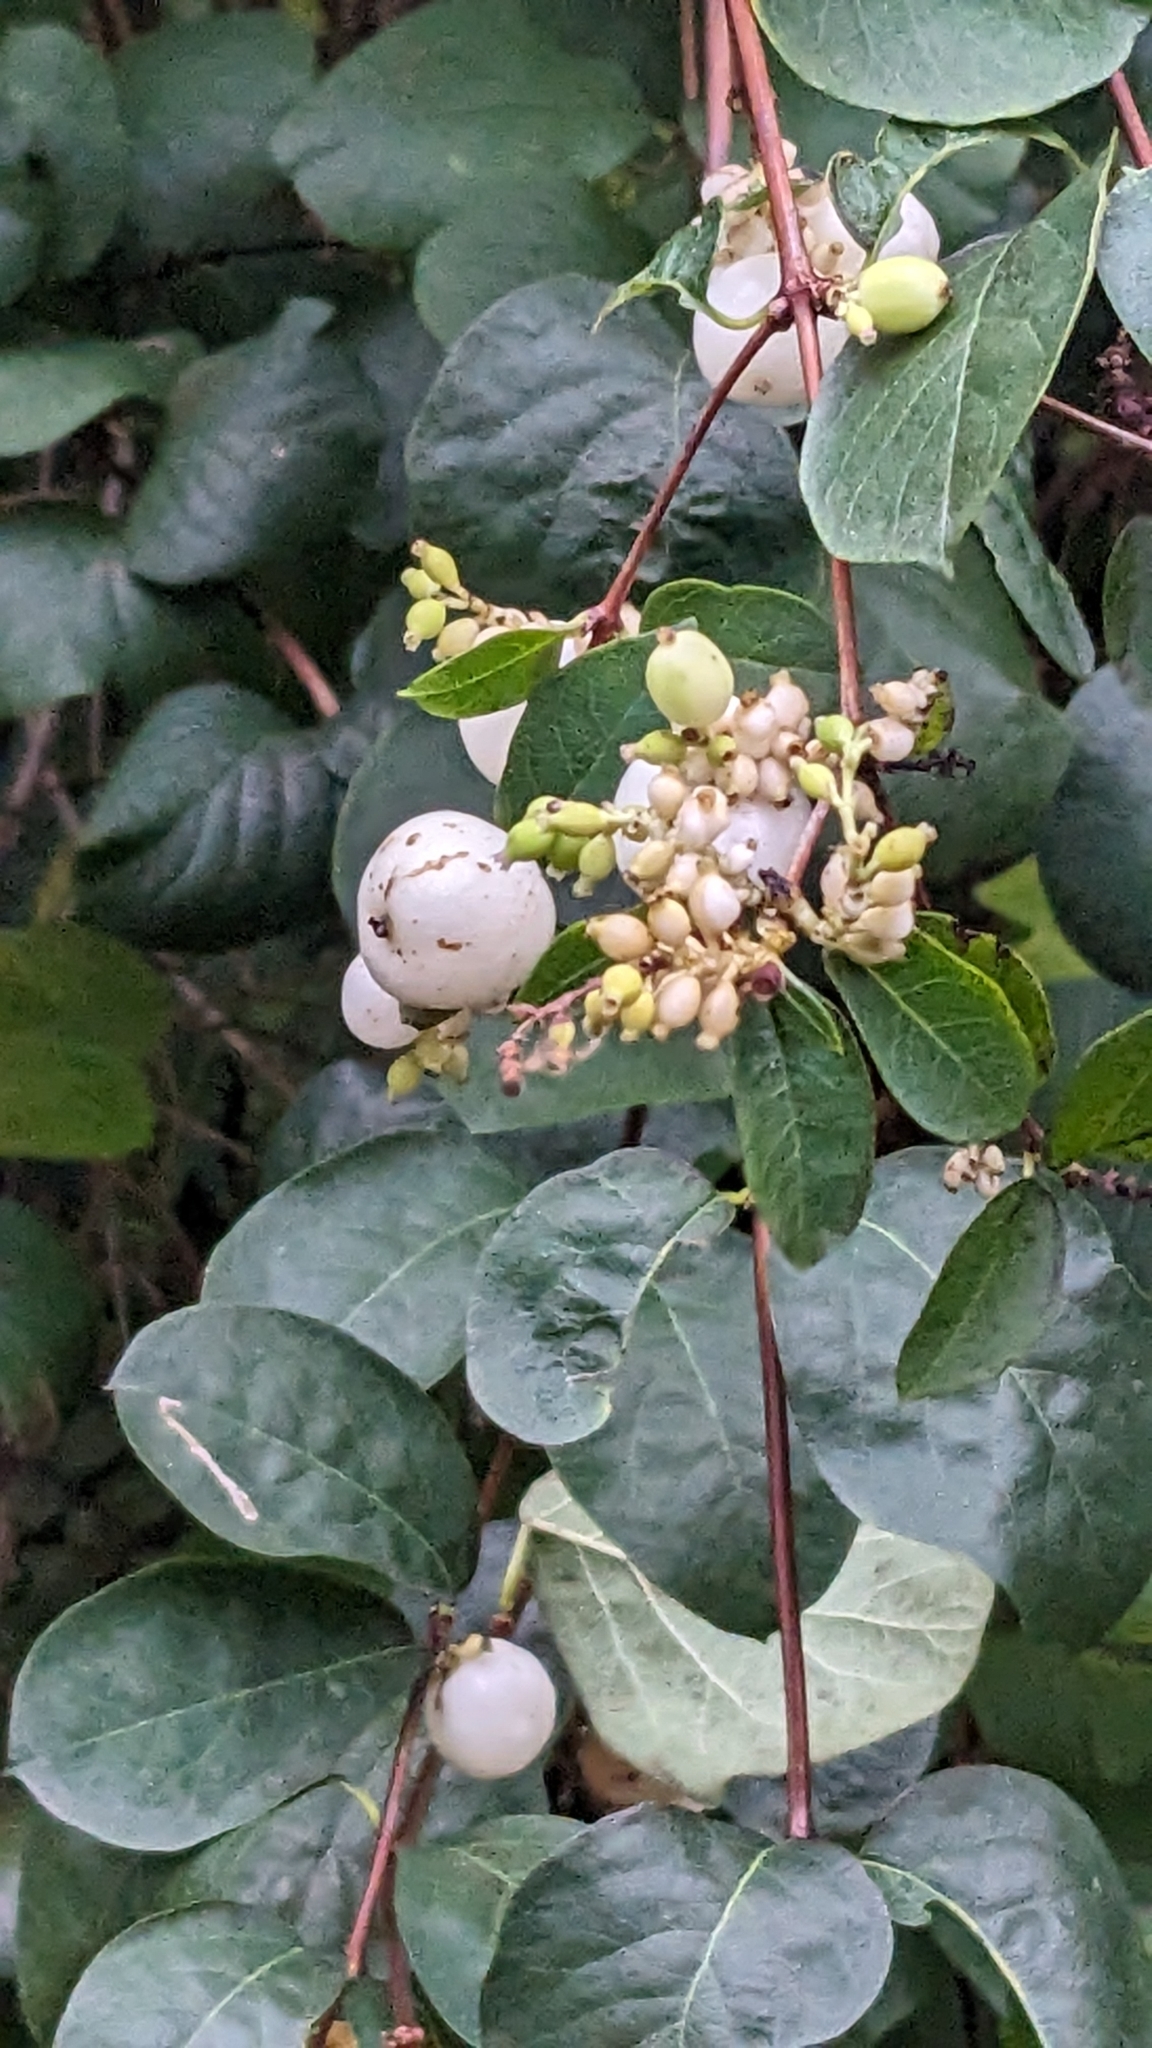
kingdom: Plantae
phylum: Tracheophyta
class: Magnoliopsida
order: Dipsacales
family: Caprifoliaceae
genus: Symphoricarpos
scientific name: Symphoricarpos albus
